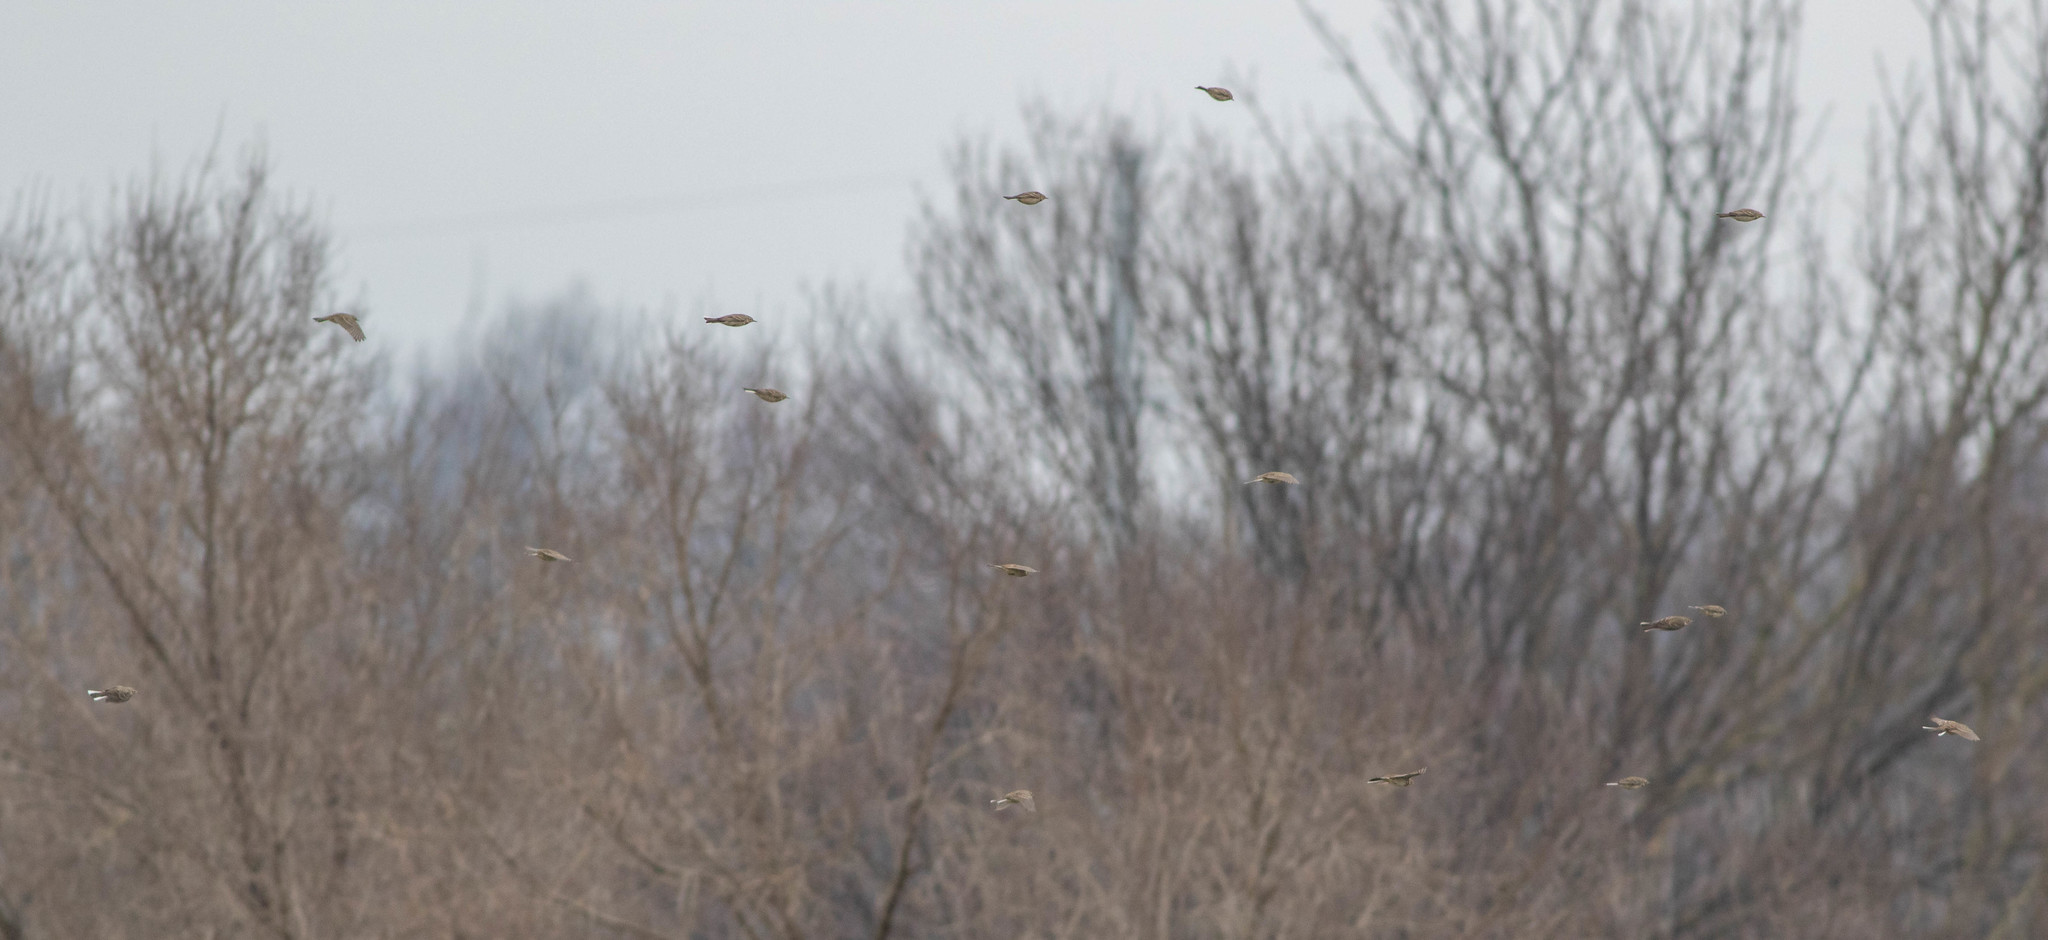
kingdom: Animalia
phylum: Chordata
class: Aves
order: Passeriformes
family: Motacillidae
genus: Anthus
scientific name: Anthus rubescens
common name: Buff-bellied pipit
